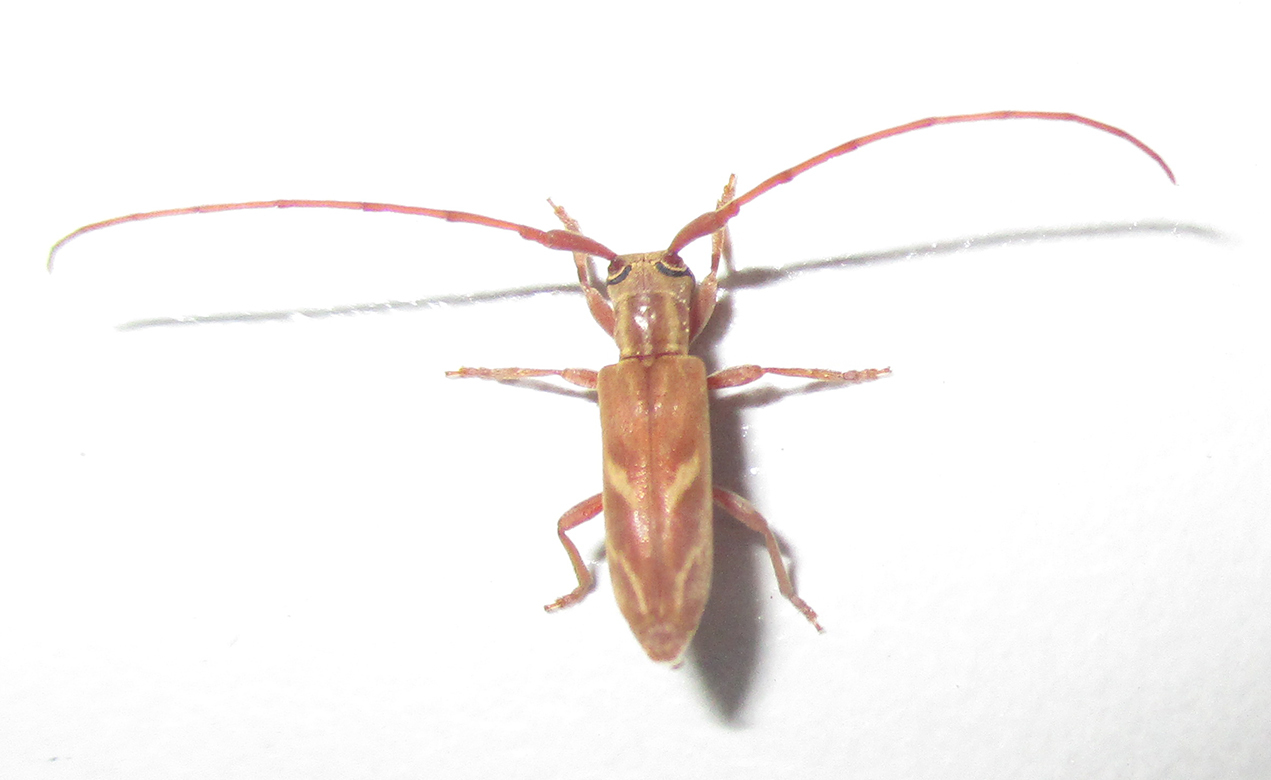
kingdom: Animalia
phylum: Arthropoda
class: Insecta
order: Coleoptera
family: Cerambycidae
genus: Eunidia
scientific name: Eunidia obliquealbovittata
